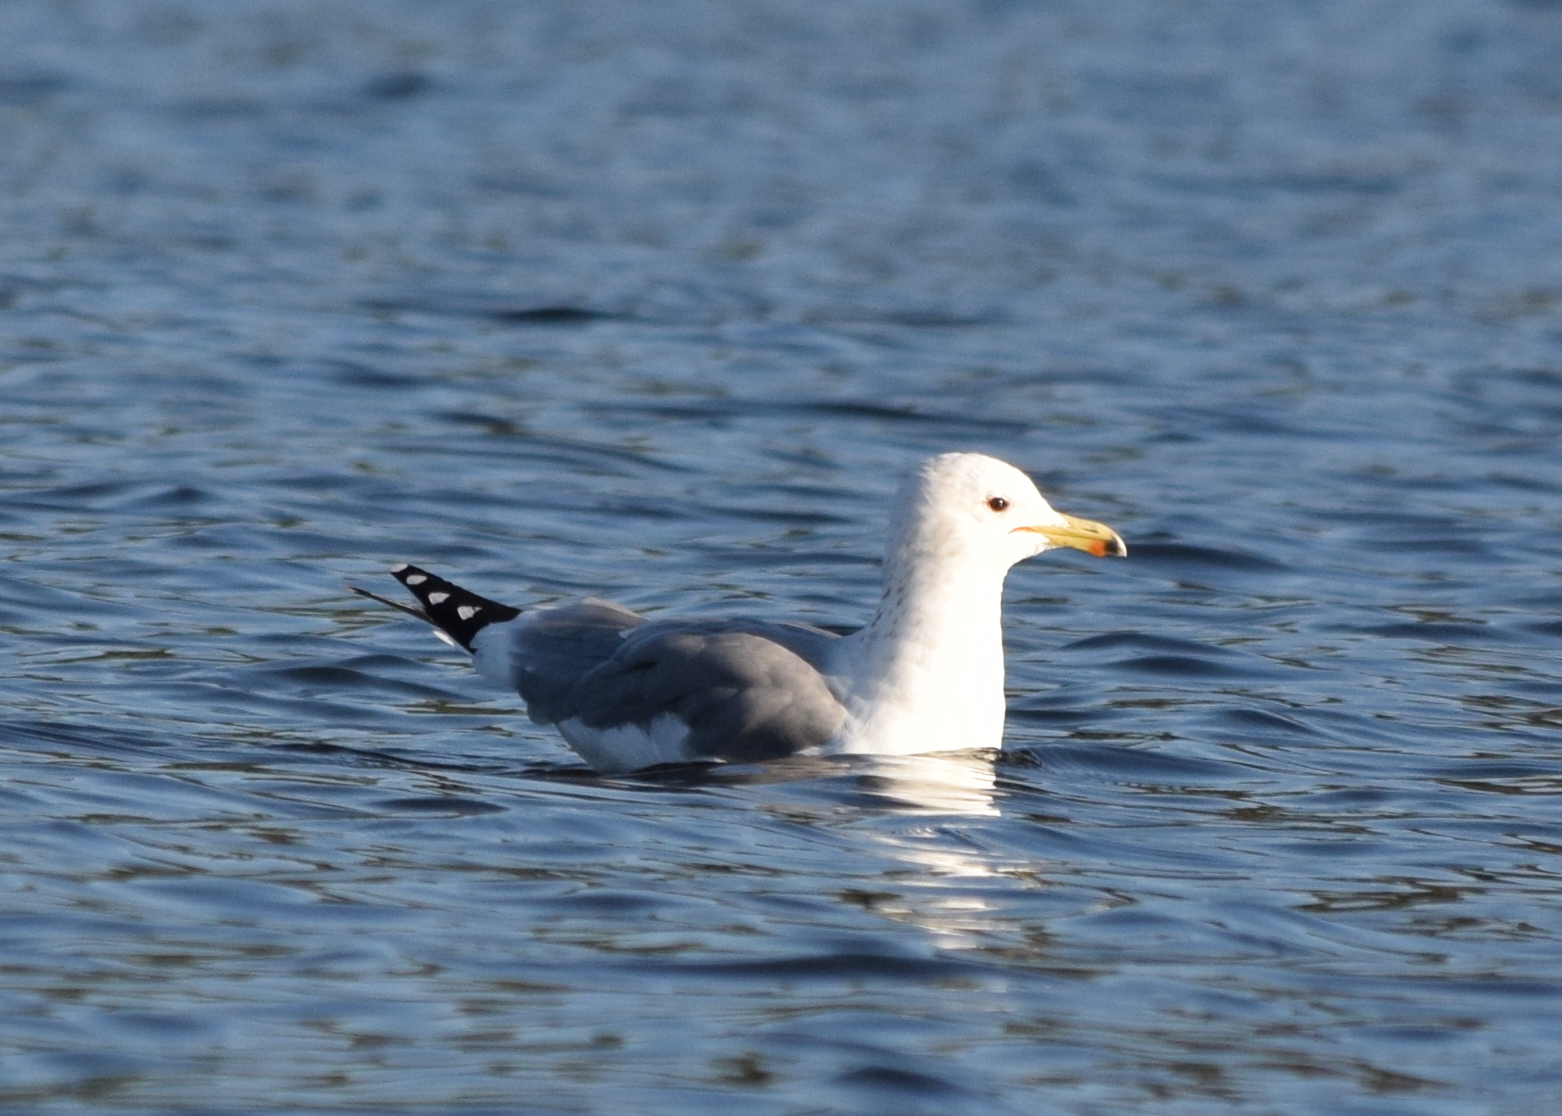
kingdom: Animalia
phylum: Chordata
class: Aves
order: Charadriiformes
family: Laridae
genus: Larus
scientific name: Larus californicus
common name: California gull
